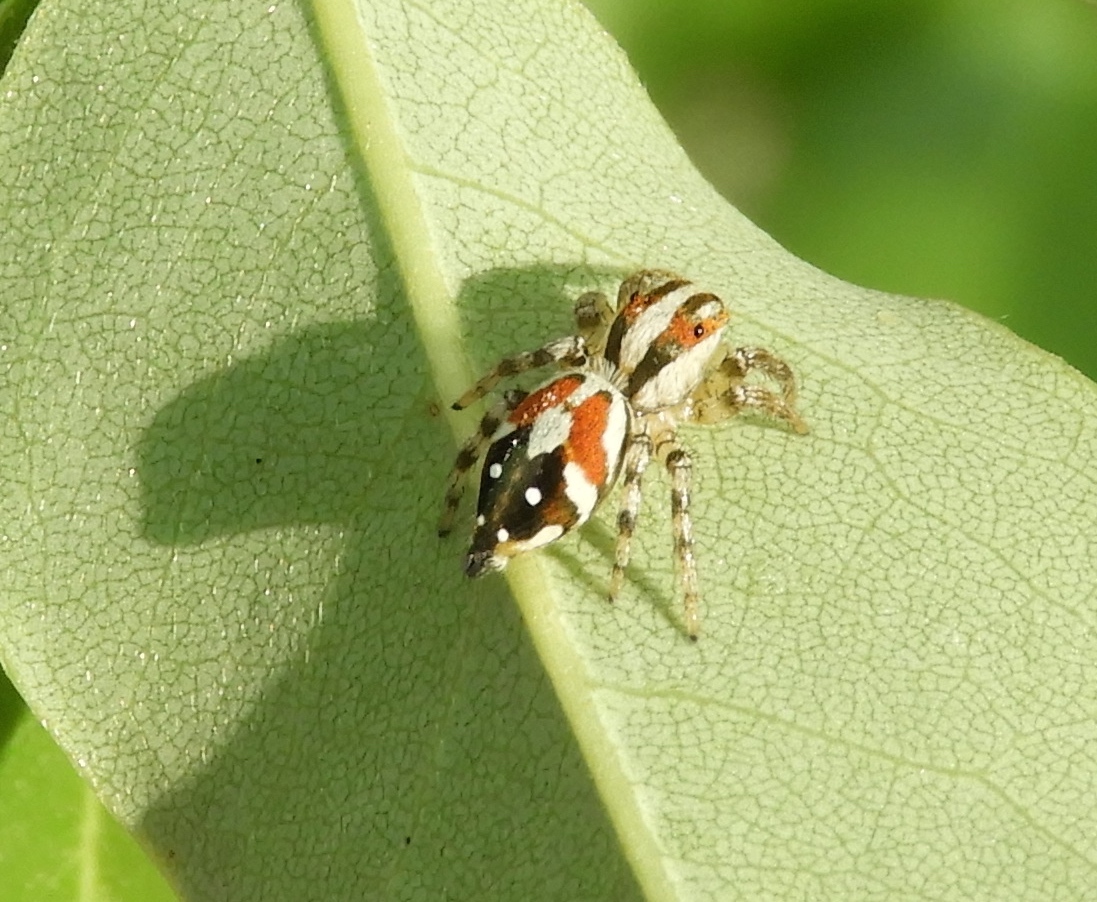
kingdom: Animalia
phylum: Arthropoda
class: Arachnida
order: Araneae
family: Salticidae
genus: Nycerella
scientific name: Nycerella delecta
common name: Jumping spiders
